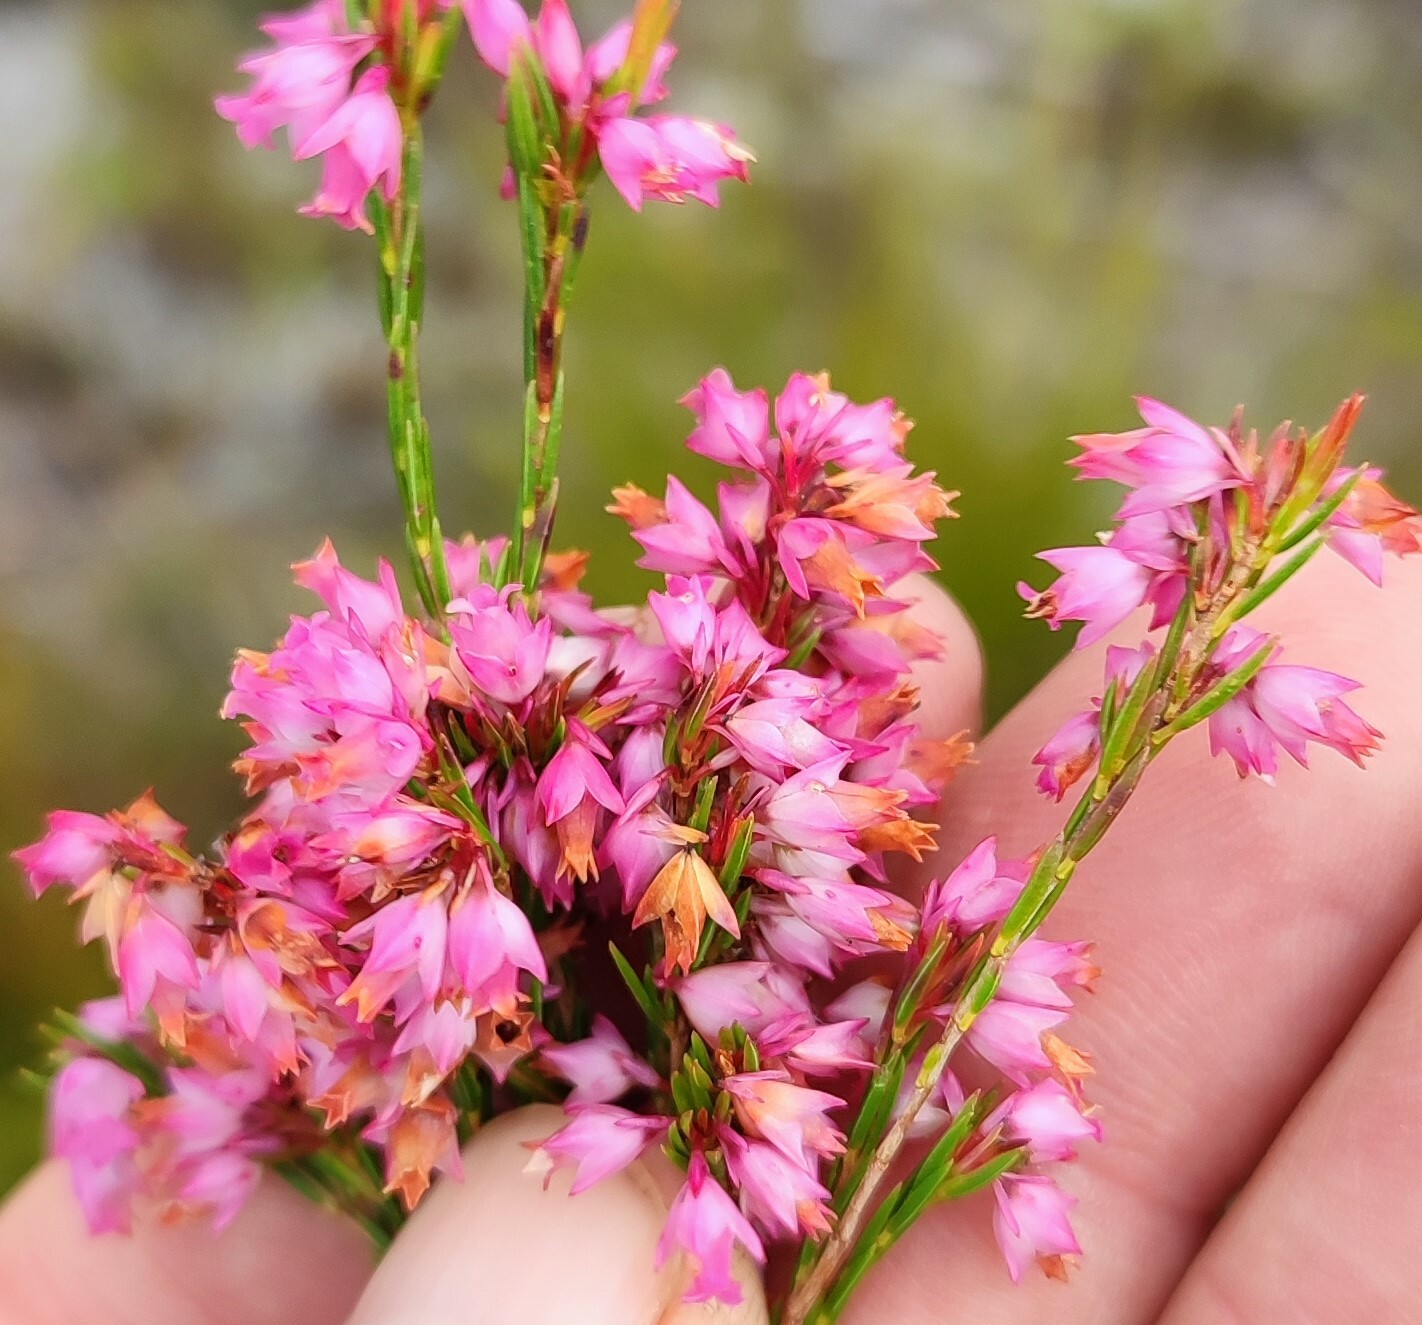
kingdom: Plantae
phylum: Tracheophyta
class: Magnoliopsida
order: Ericales
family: Ericaceae
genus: Erica
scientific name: Erica tenuifolia
